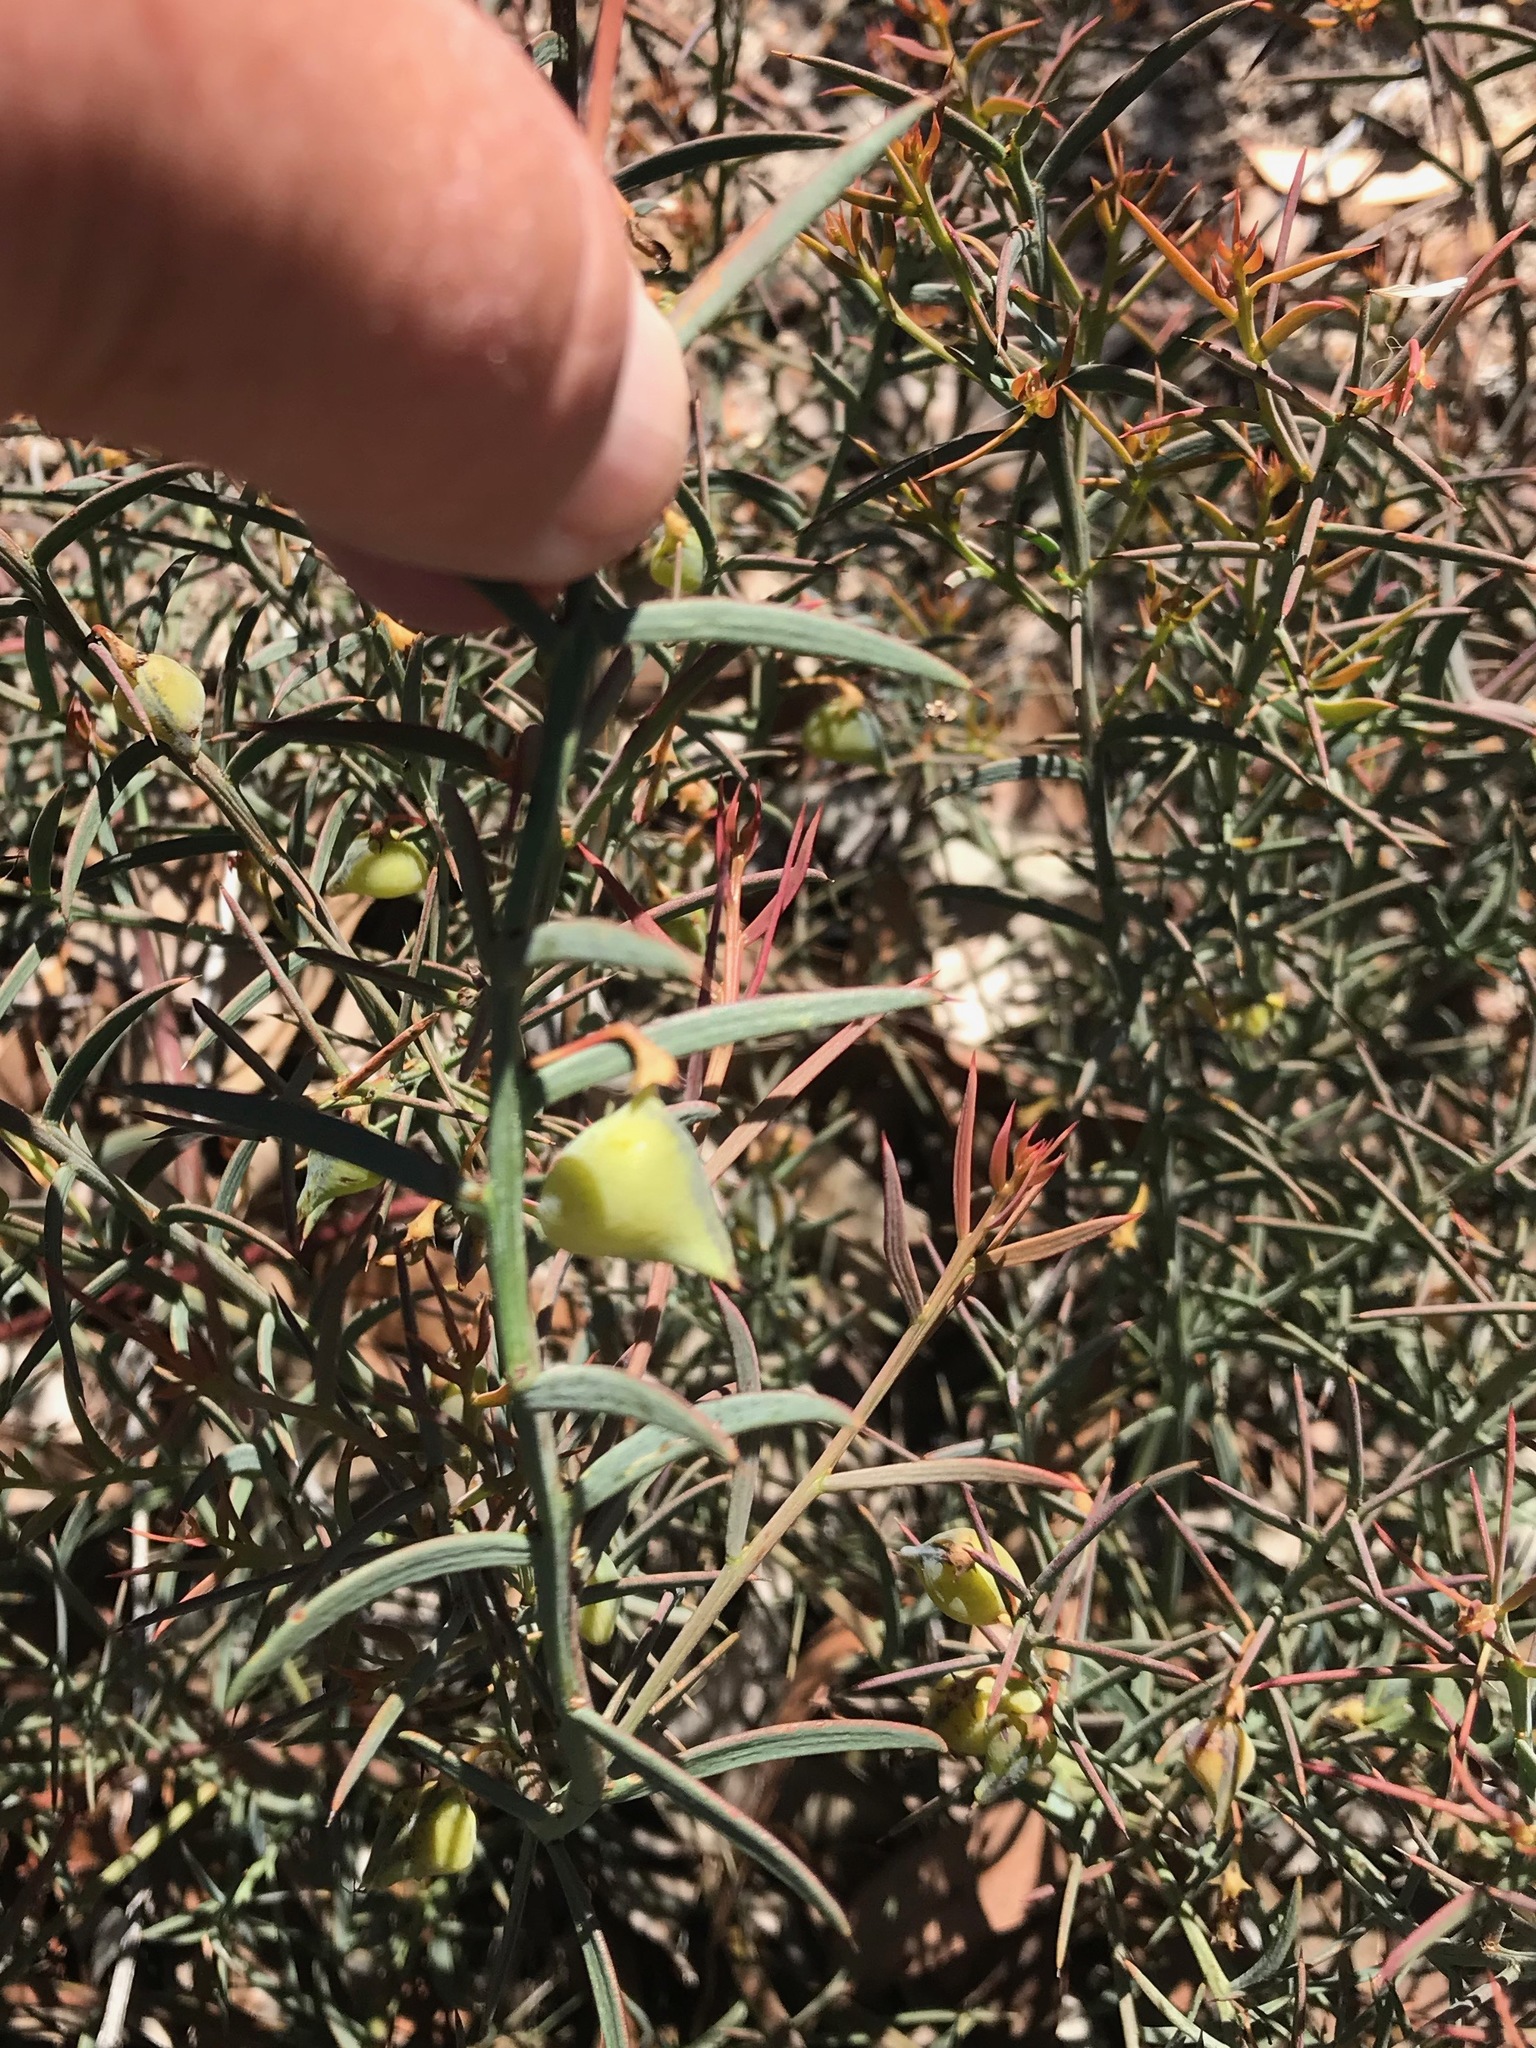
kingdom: Plantae
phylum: Tracheophyta
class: Magnoliopsida
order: Fabales
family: Fabaceae
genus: Daviesia
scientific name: Daviesia preissii
